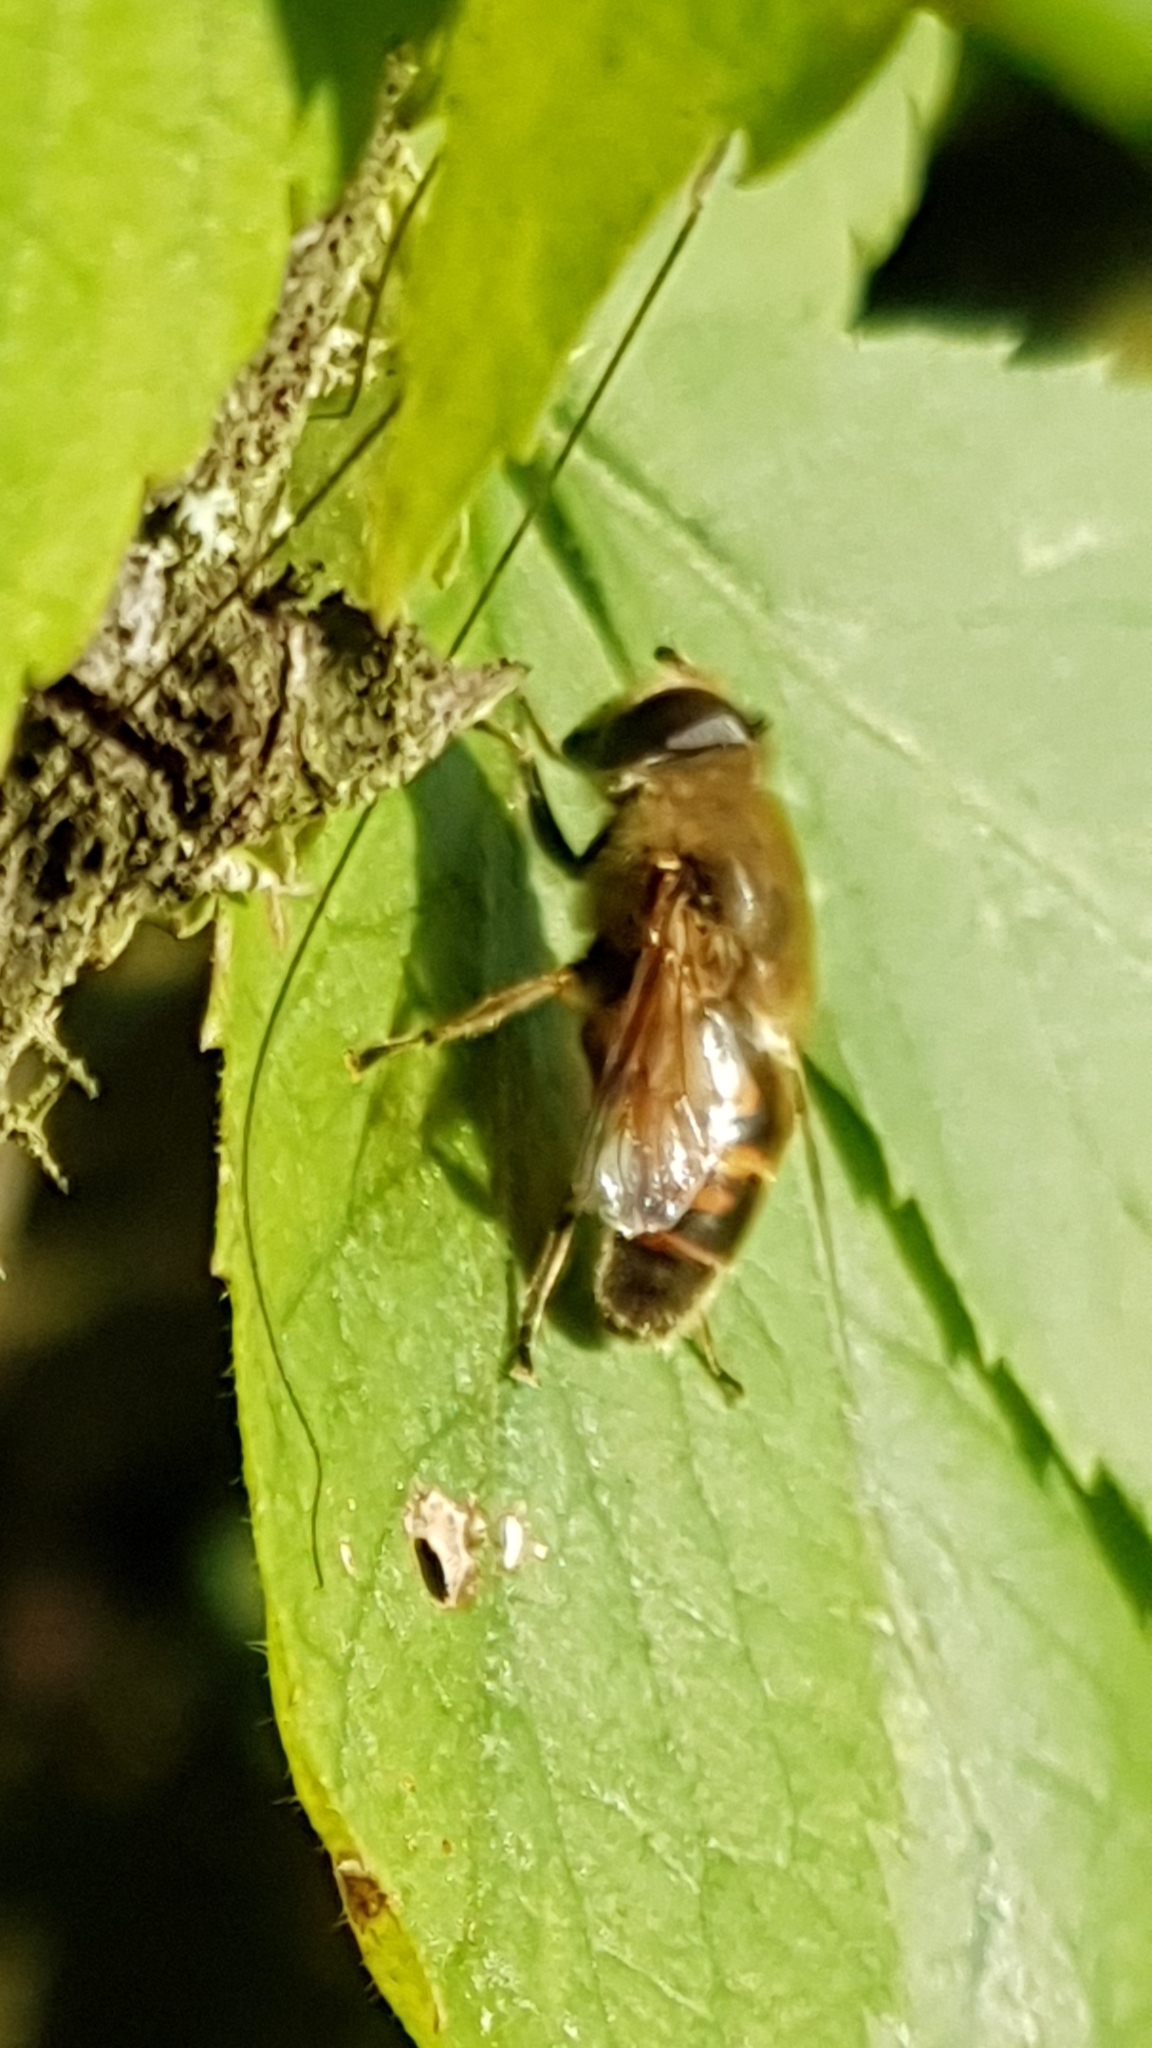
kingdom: Animalia
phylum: Arthropoda
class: Insecta
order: Diptera
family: Syrphidae
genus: Eristalis
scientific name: Eristalis tenax
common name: Drone fly
